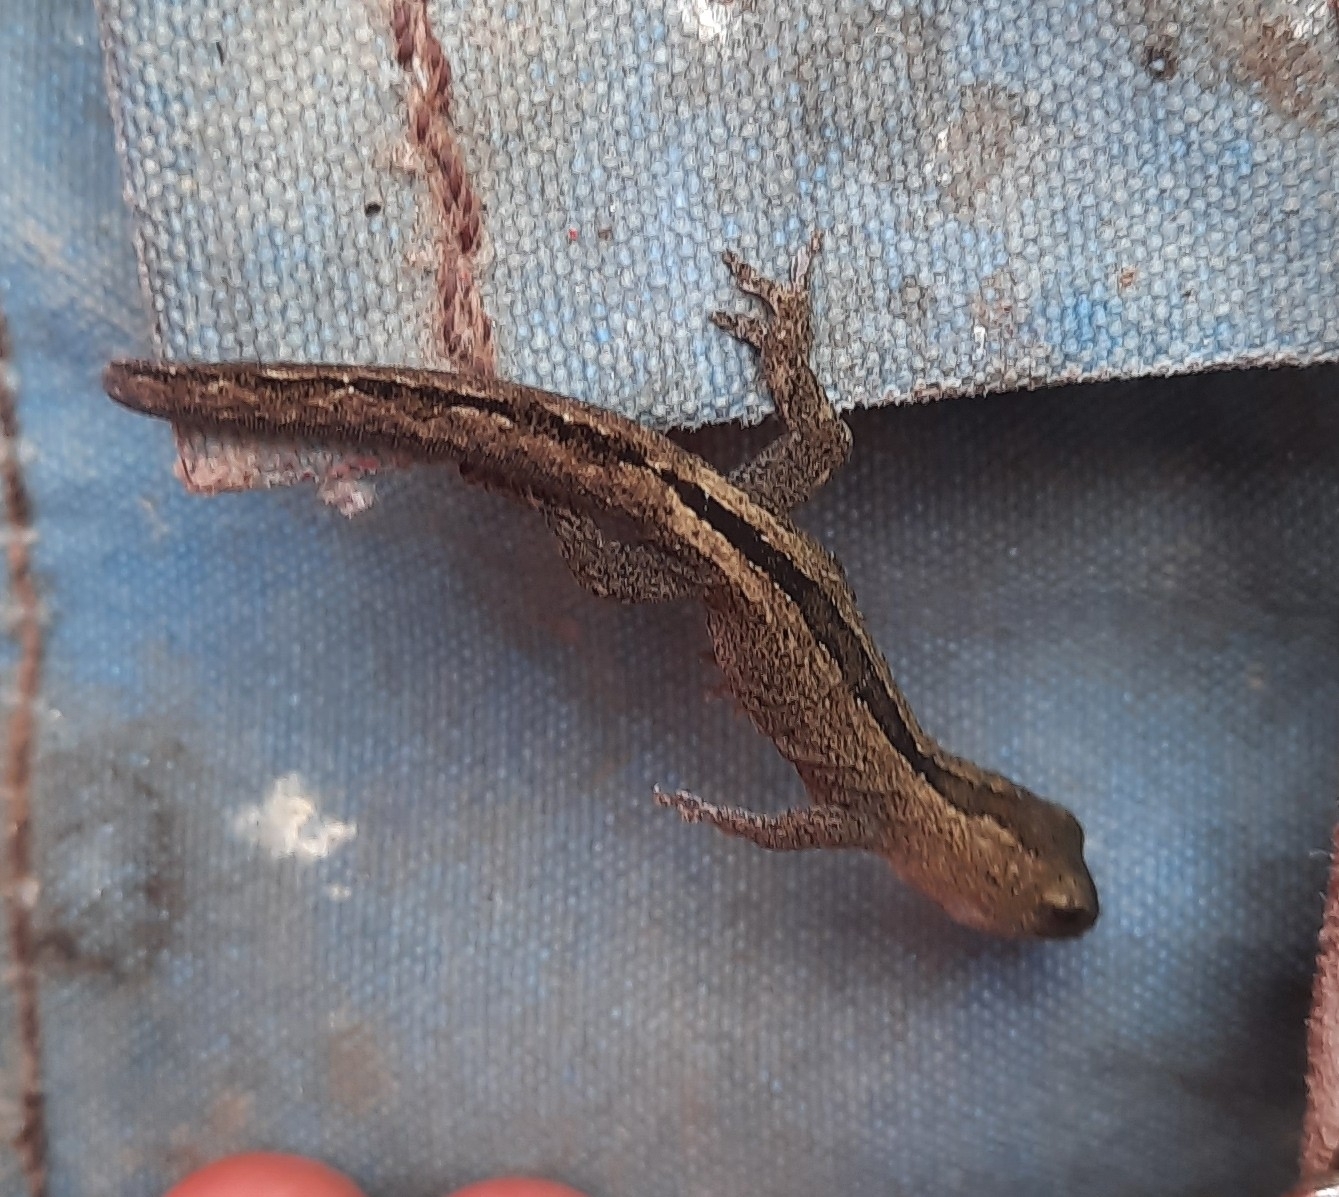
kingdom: Animalia
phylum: Chordata
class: Squamata
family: Diplodactylidae
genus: Woodworthia
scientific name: Woodworthia maculata
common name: Raukawa gecko
